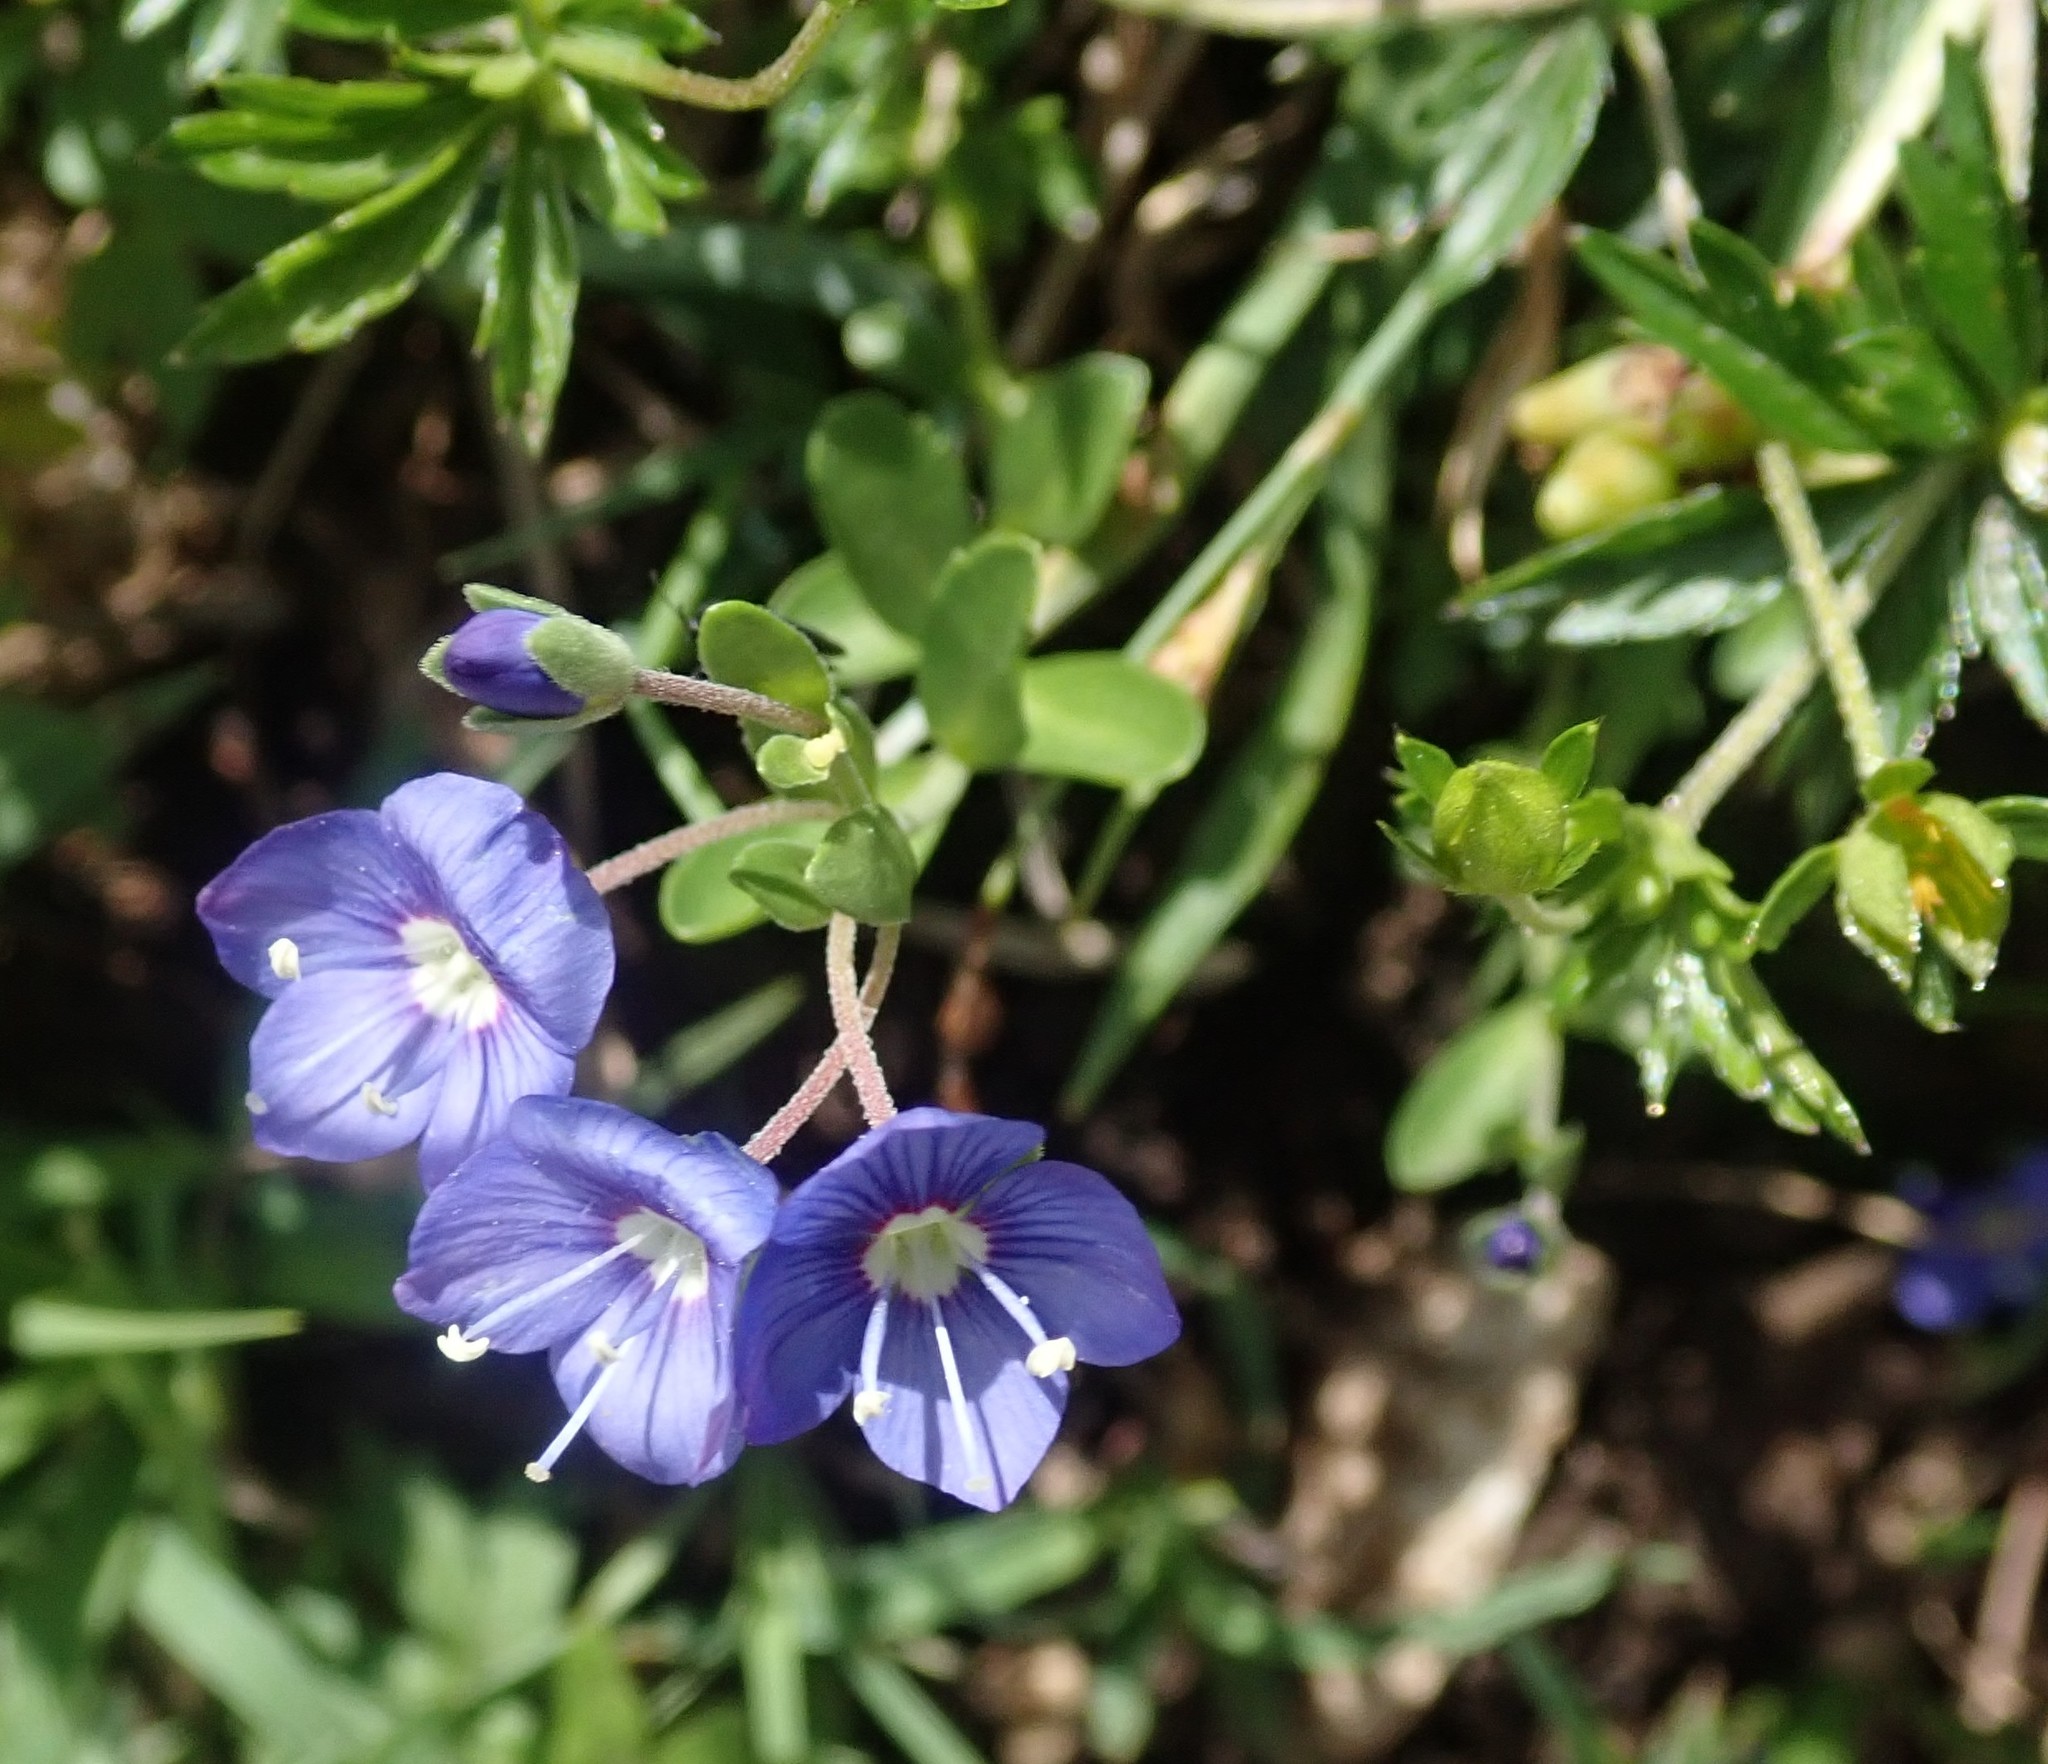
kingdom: Plantae
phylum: Tracheophyta
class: Magnoliopsida
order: Lamiales
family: Plantaginaceae
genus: Veronica
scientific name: Veronica fruticans
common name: Rock speedwell
